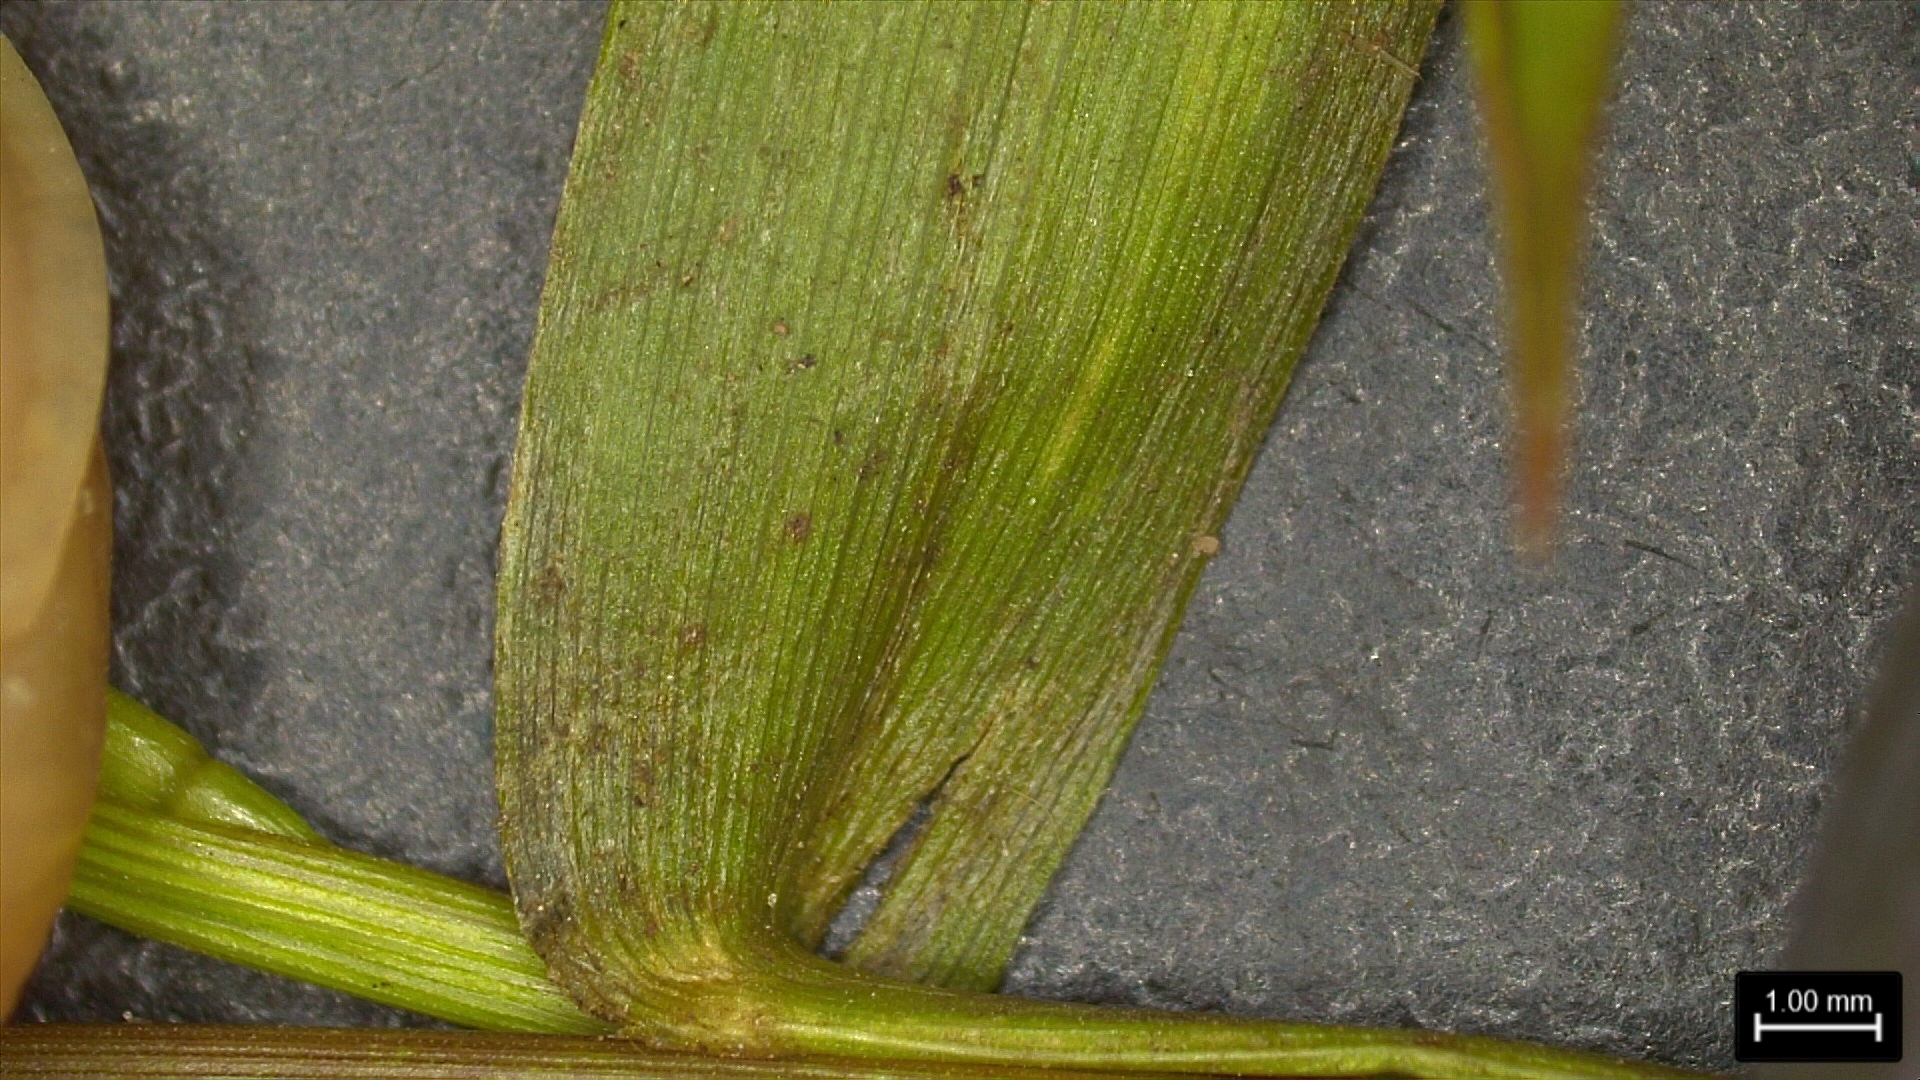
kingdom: Plantae
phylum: Tracheophyta
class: Liliopsida
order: Poales
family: Poaceae
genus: Dichanthelium
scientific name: Dichanthelium spretum
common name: Eaton's panicgrass
